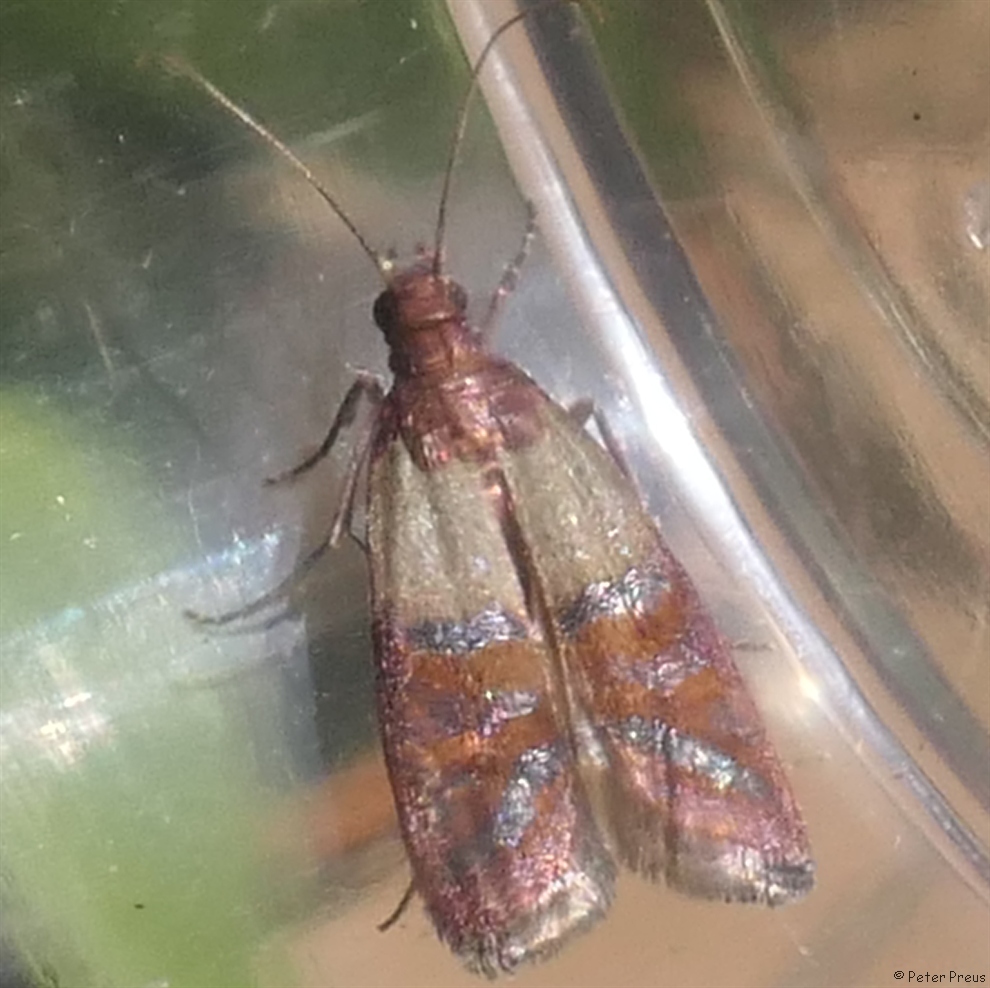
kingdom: Animalia
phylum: Arthropoda
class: Insecta
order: Lepidoptera
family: Pyralidae
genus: Plodia
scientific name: Plodia interpunctella
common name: Indian meal moth
